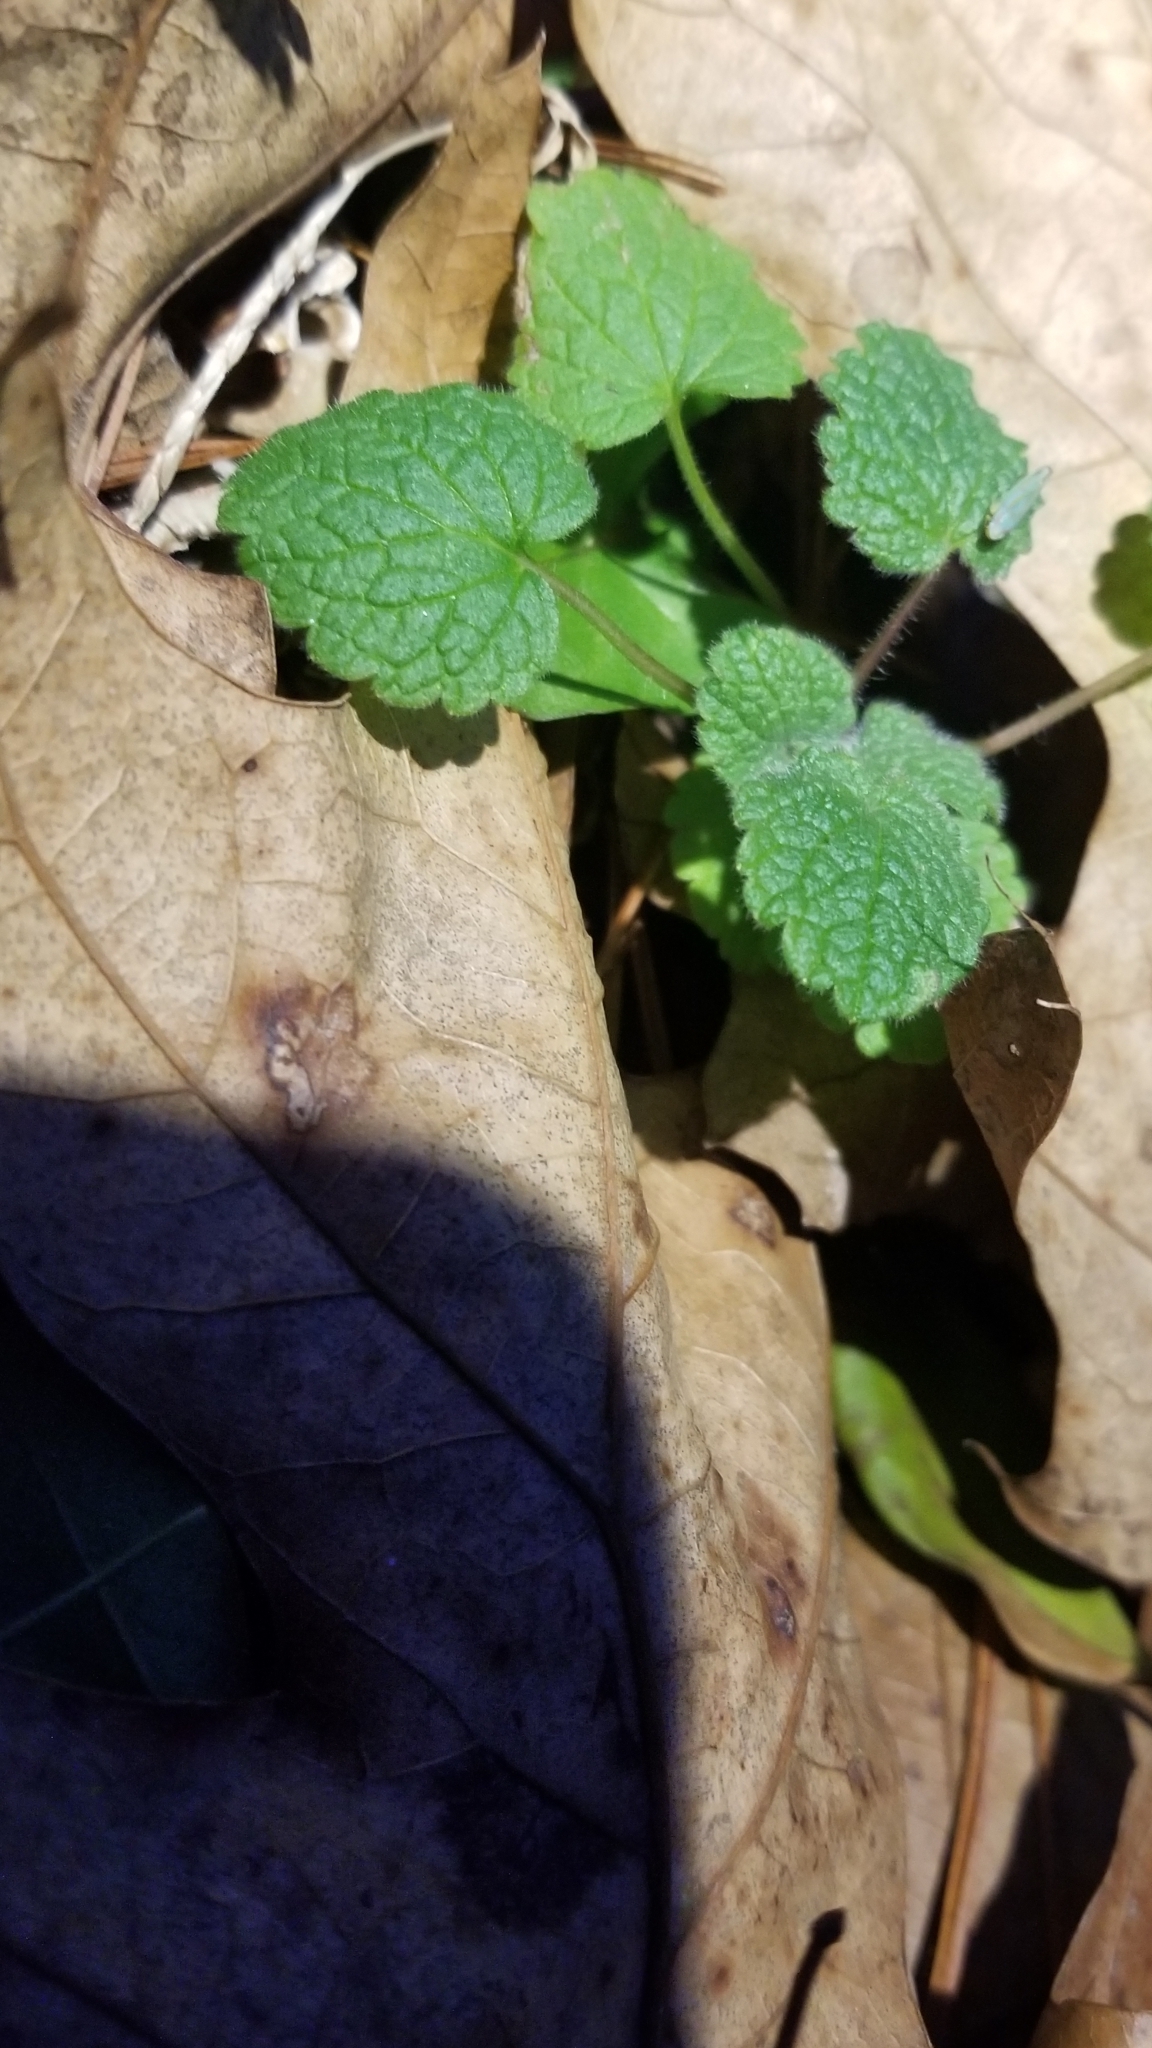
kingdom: Plantae
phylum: Tracheophyta
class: Magnoliopsida
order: Lamiales
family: Lamiaceae
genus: Lamium
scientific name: Lamium purpureum
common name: Red dead-nettle
